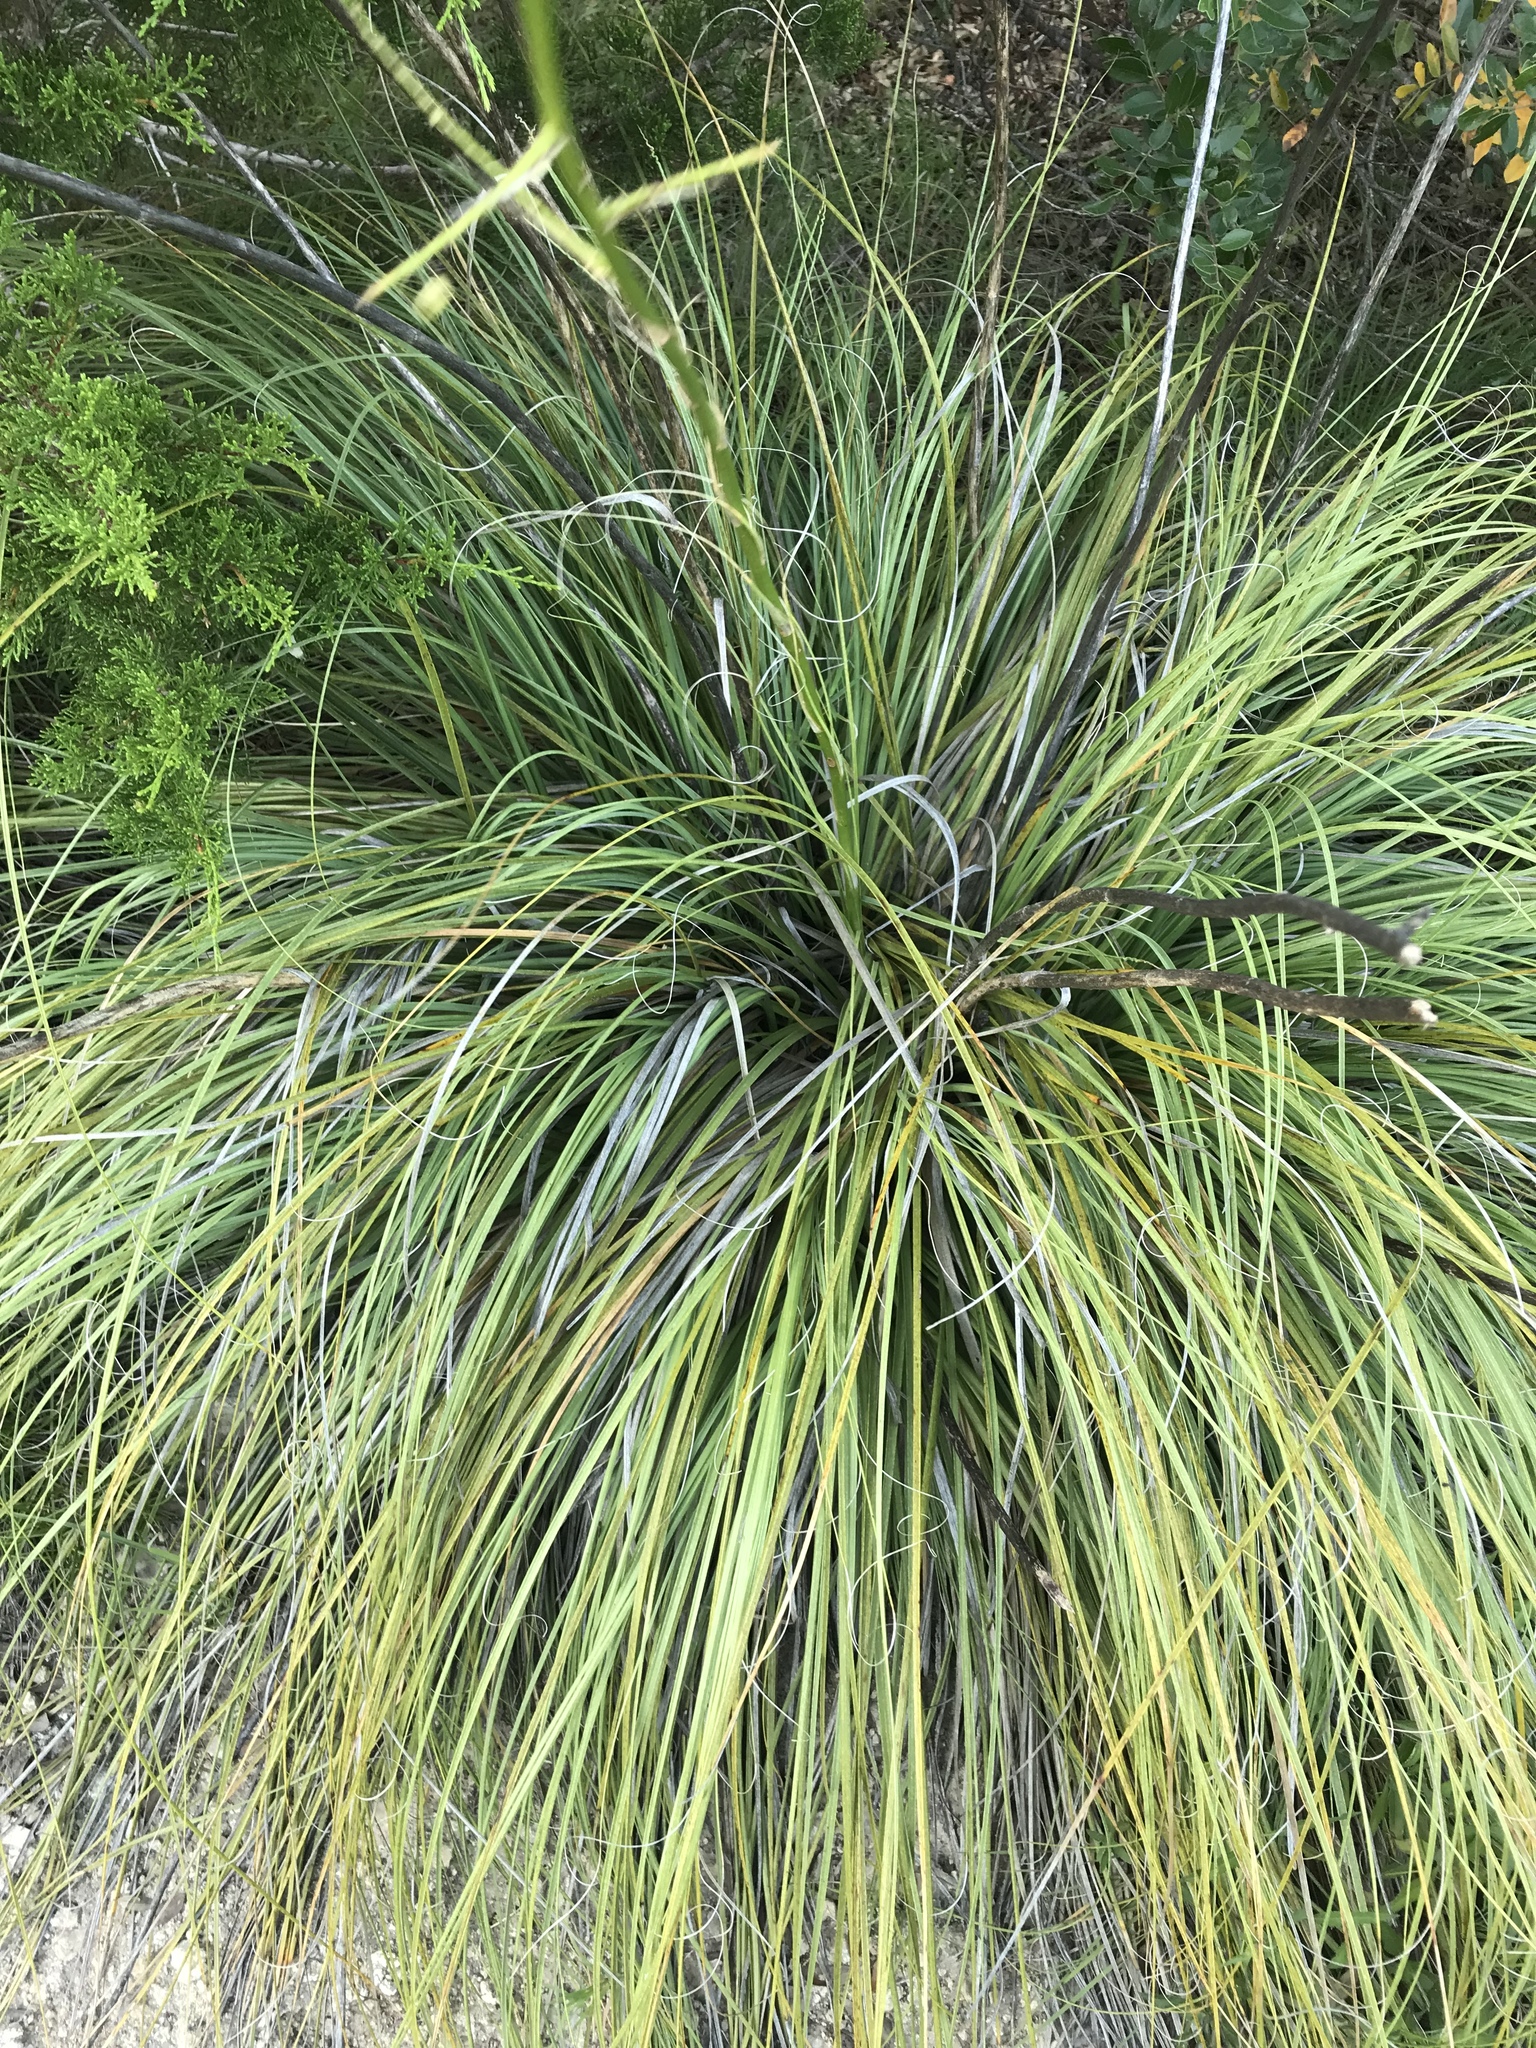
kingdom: Plantae
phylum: Tracheophyta
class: Liliopsida
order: Asparagales
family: Asparagaceae
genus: Nolina
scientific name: Nolina lindheimeriana
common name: Lindheimer's bear-grass
